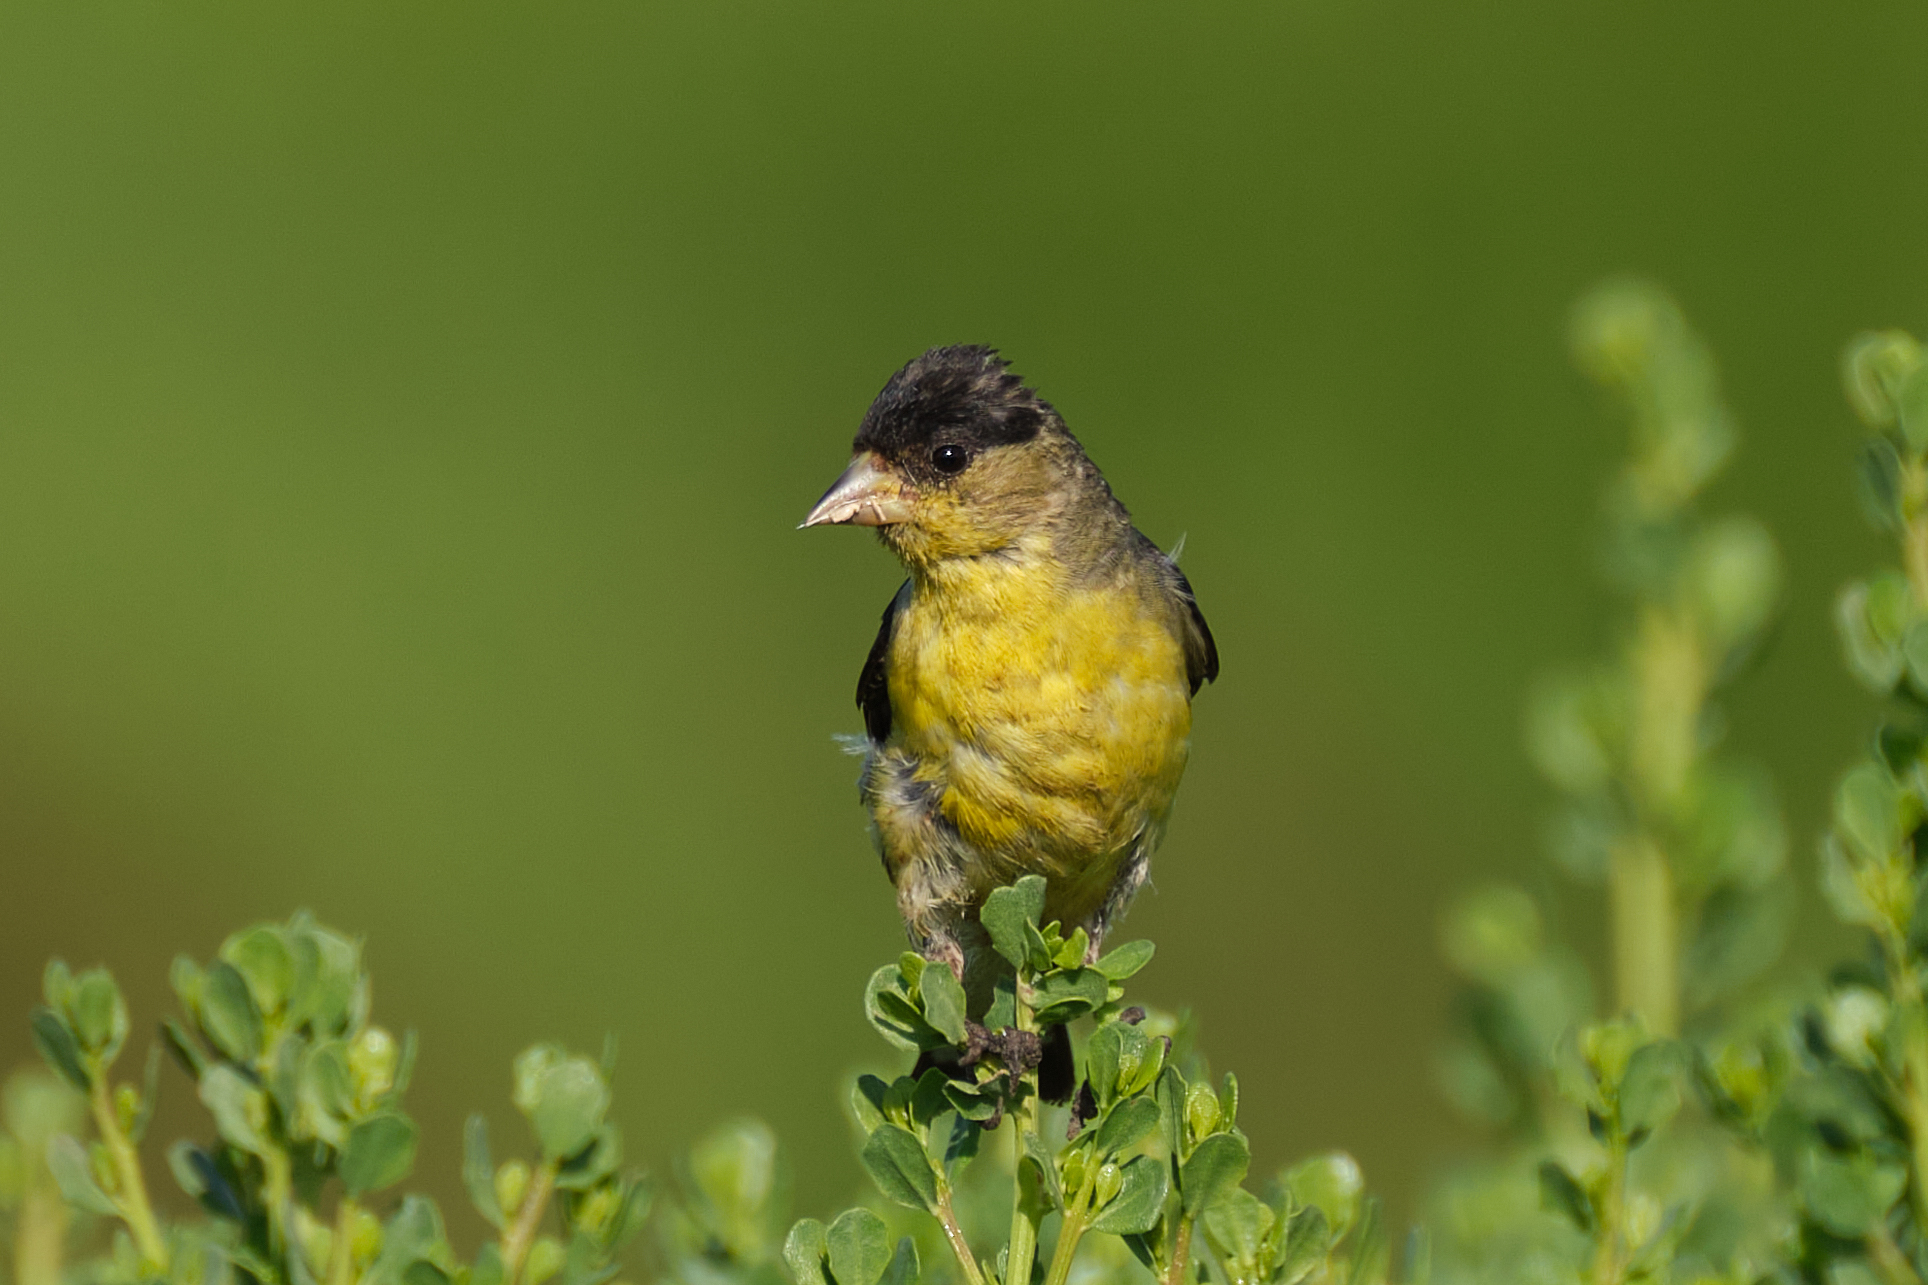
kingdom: Animalia
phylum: Chordata
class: Aves
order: Passeriformes
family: Fringillidae
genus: Spinus
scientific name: Spinus psaltria
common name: Lesser goldfinch
